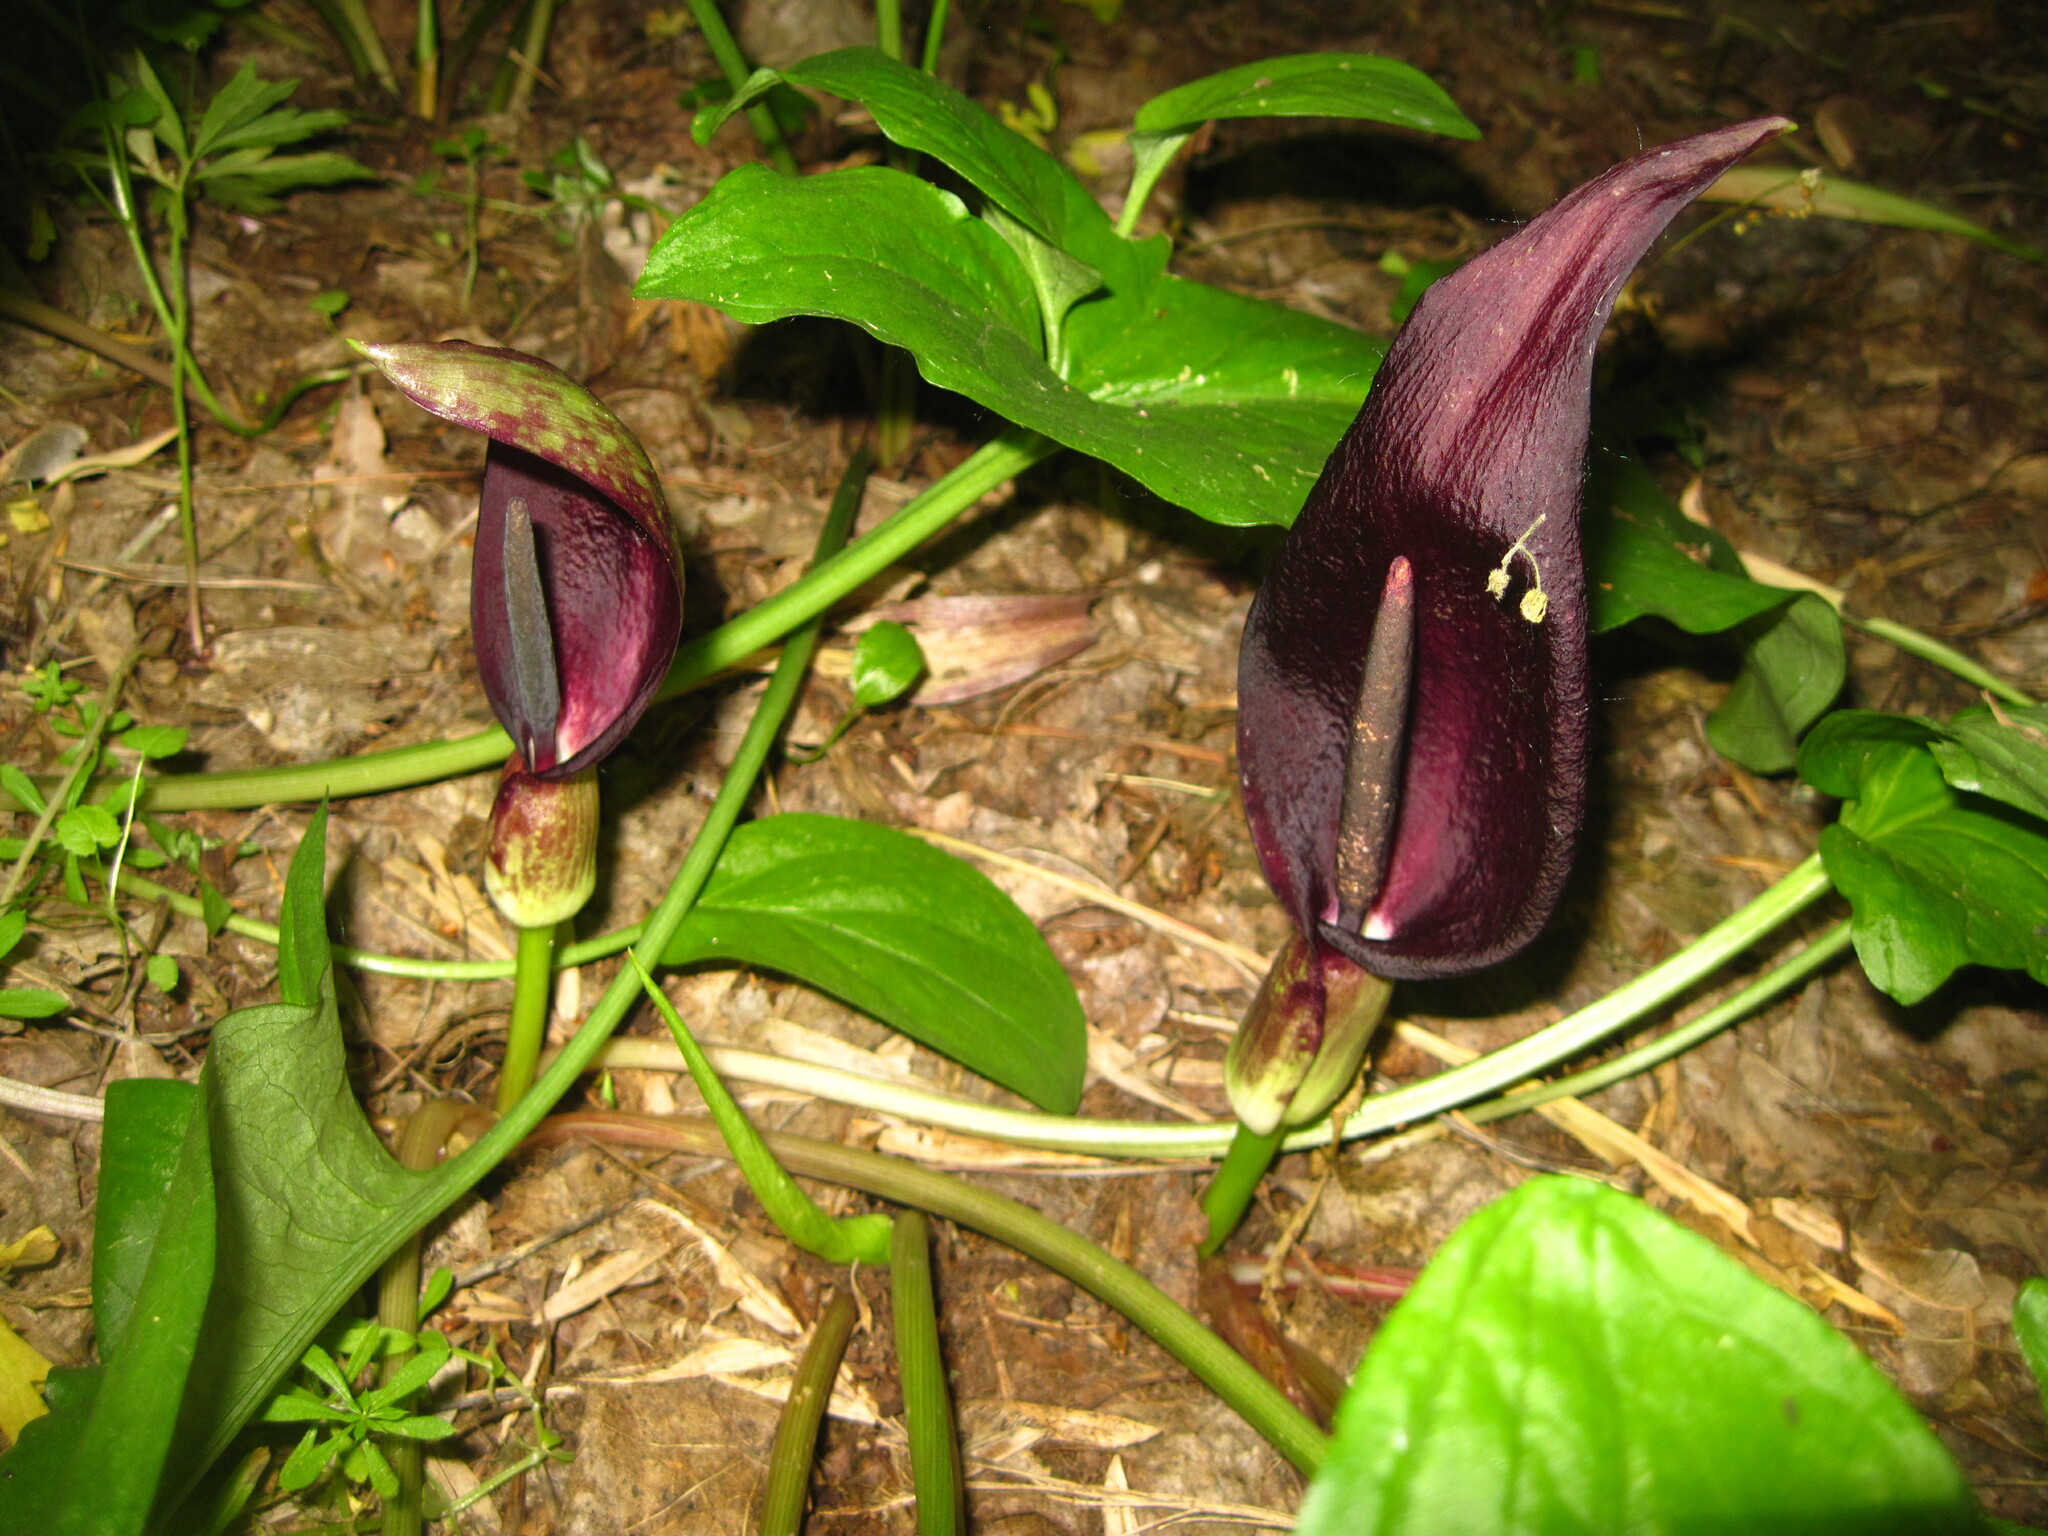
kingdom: Plantae
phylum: Tracheophyta
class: Liliopsida
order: Alismatales
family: Araceae
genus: Arum
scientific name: Arum orientale
